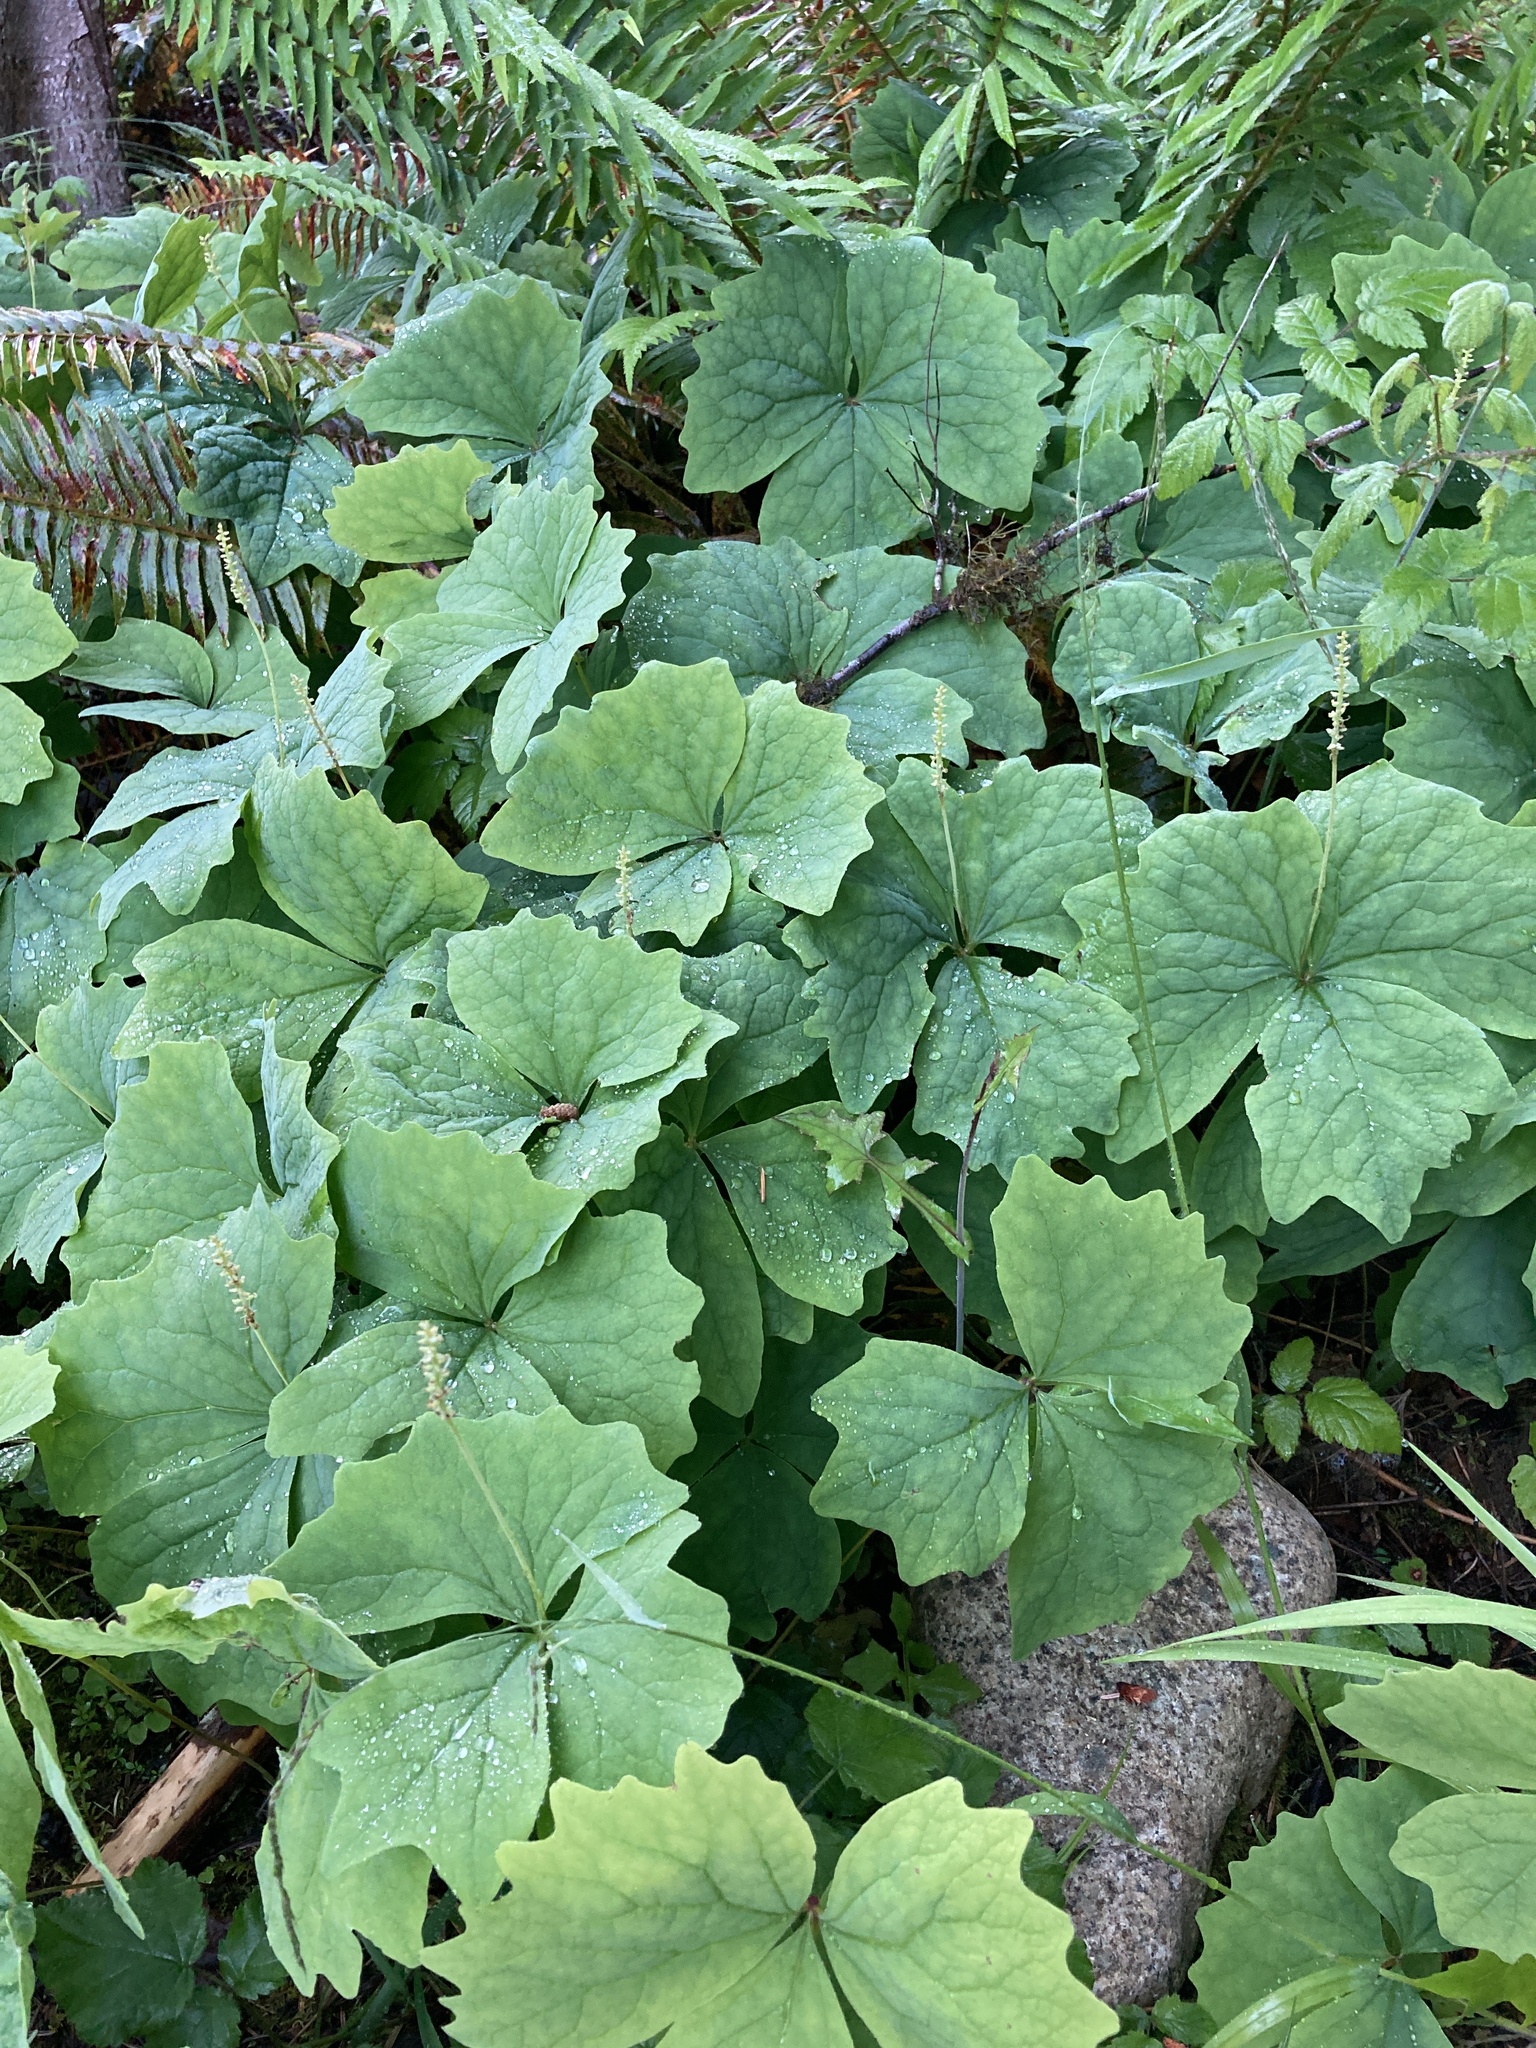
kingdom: Plantae
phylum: Tracheophyta
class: Magnoliopsida
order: Ranunculales
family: Berberidaceae
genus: Achlys
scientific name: Achlys triphylla
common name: Vanilla-leaf
